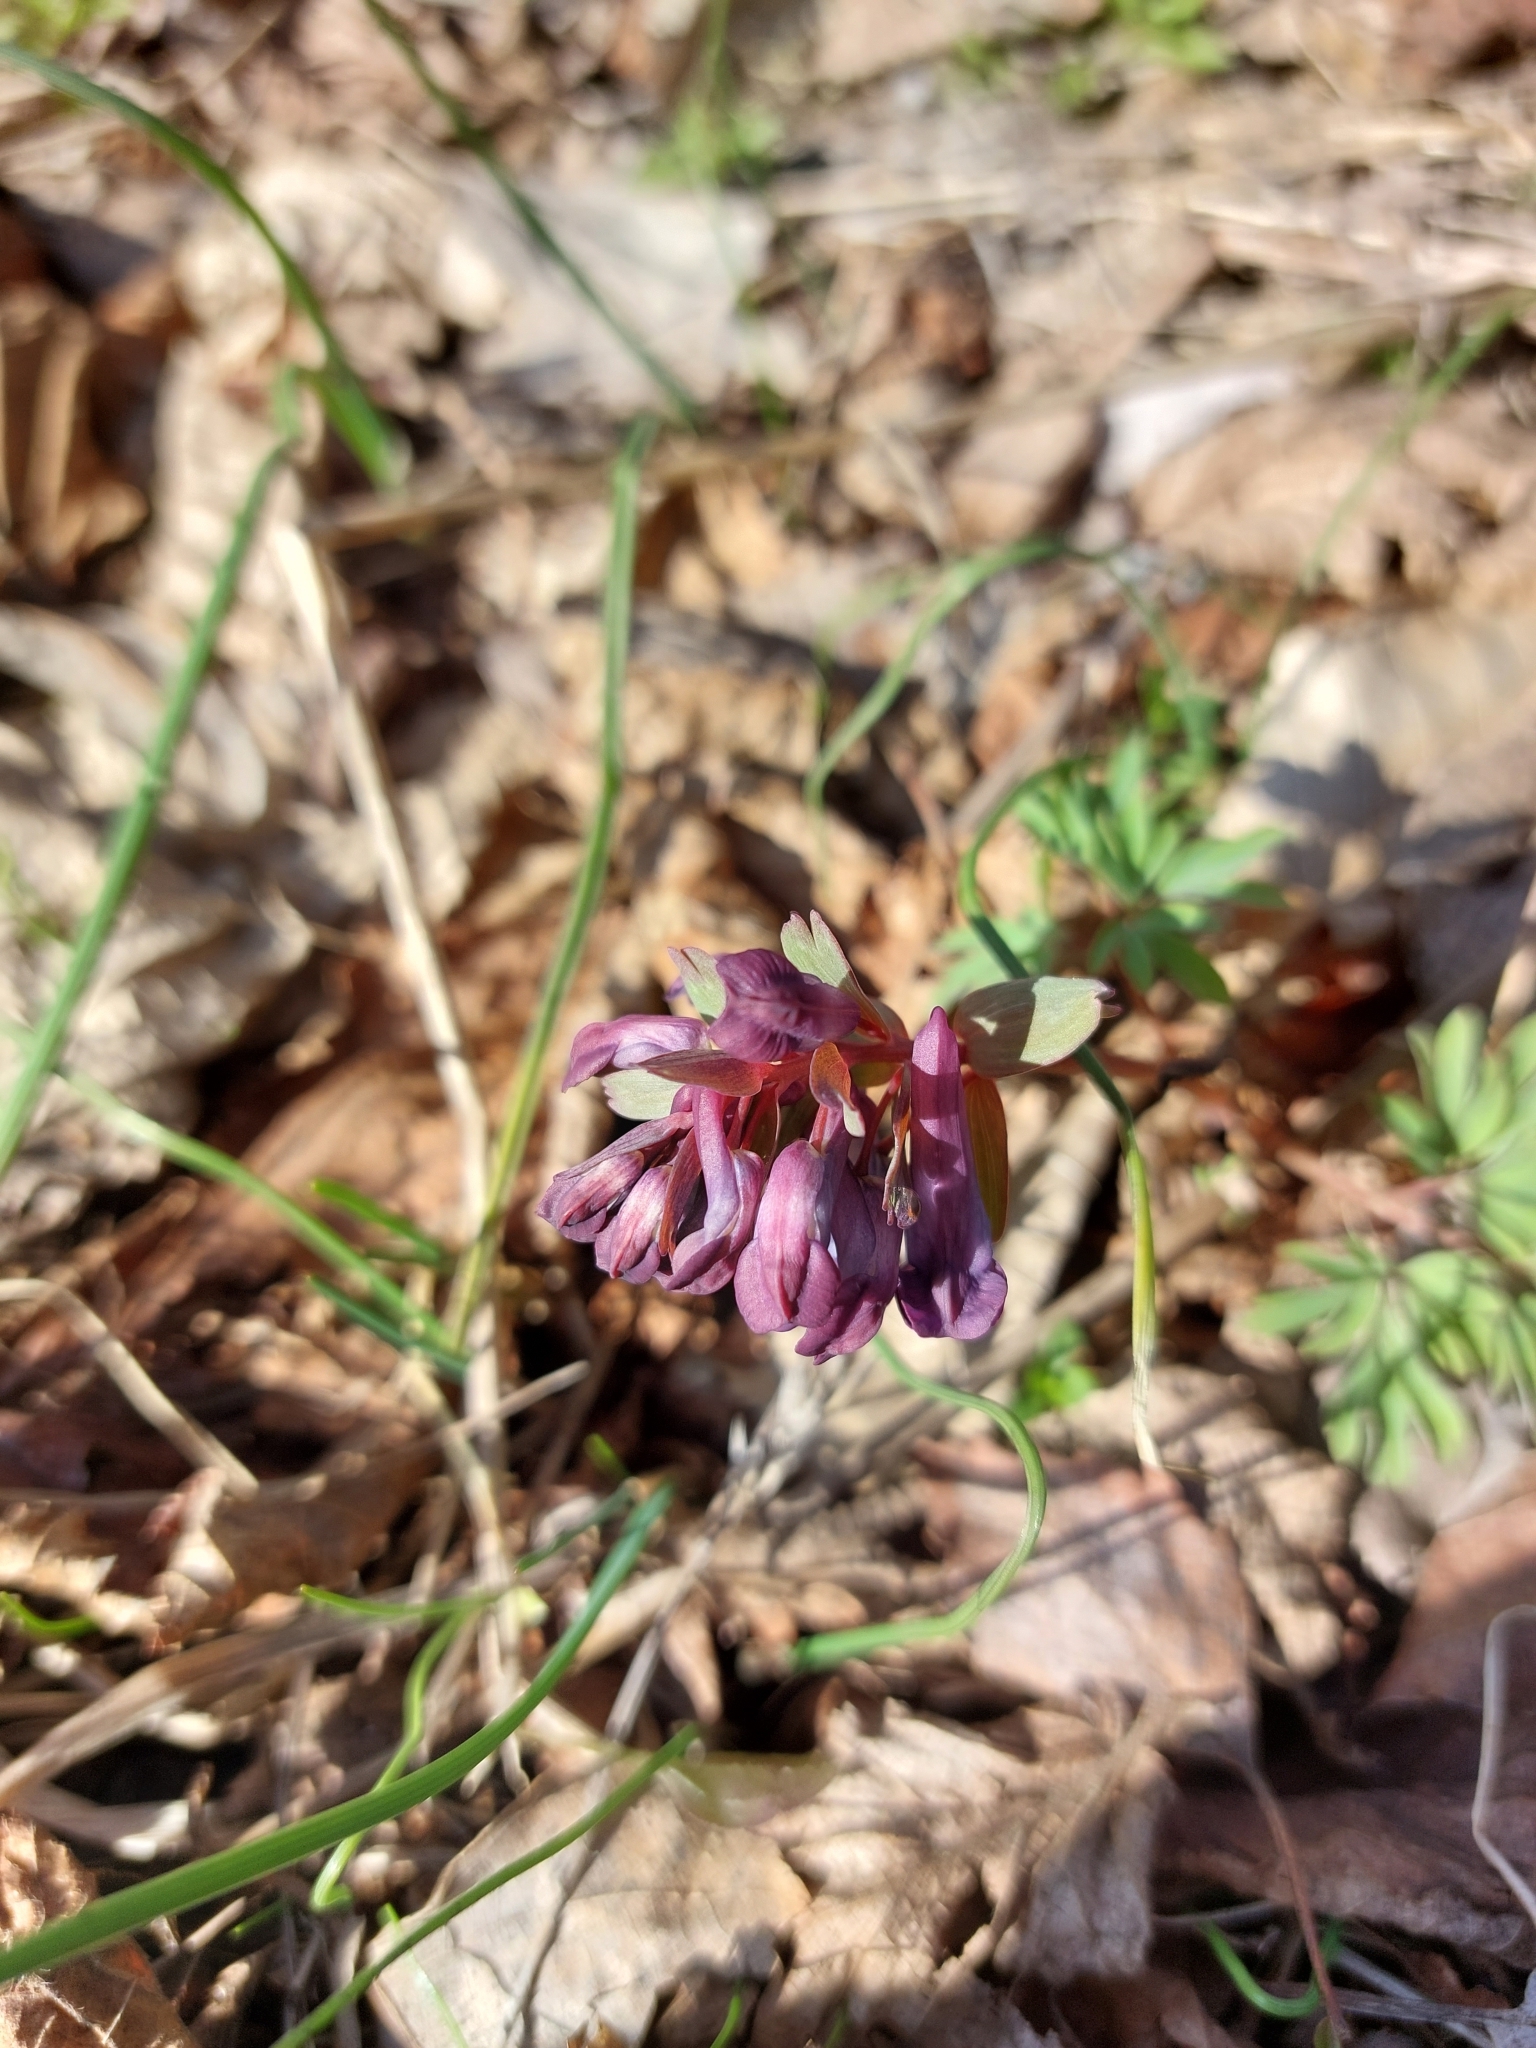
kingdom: Plantae
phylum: Tracheophyta
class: Magnoliopsida
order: Ranunculales
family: Papaveraceae
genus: Corydalis
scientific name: Corydalis solida
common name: Bird-in-a-bush
